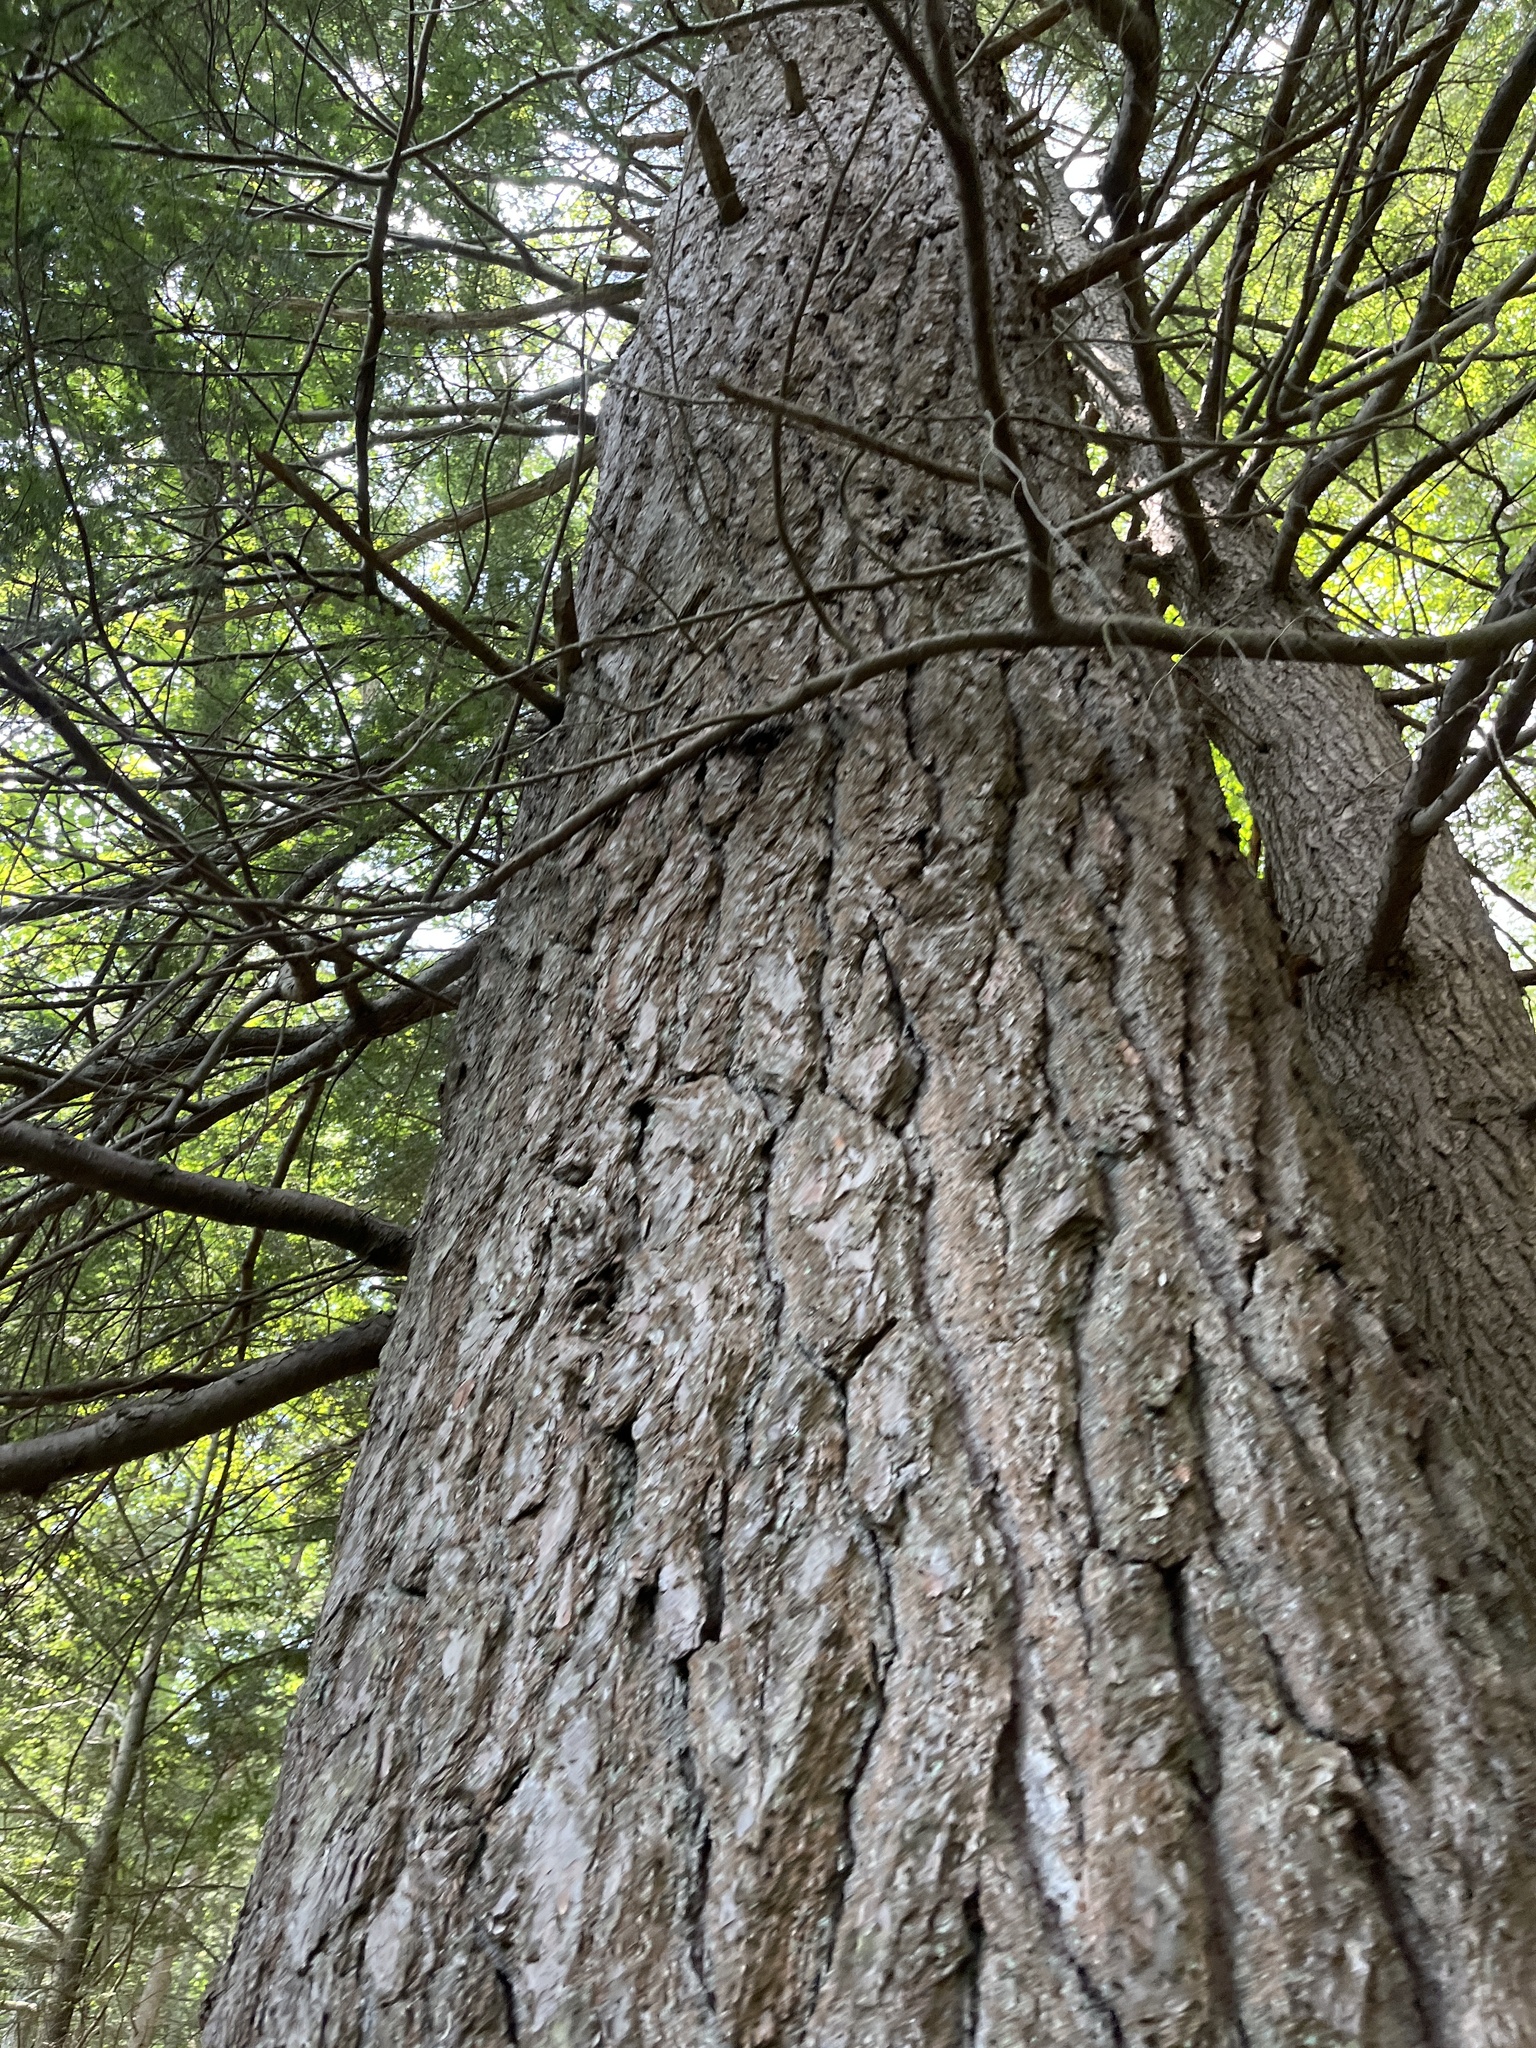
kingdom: Plantae
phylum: Tracheophyta
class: Pinopsida
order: Pinales
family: Pinaceae
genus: Tsuga
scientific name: Tsuga canadensis
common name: Eastern hemlock
